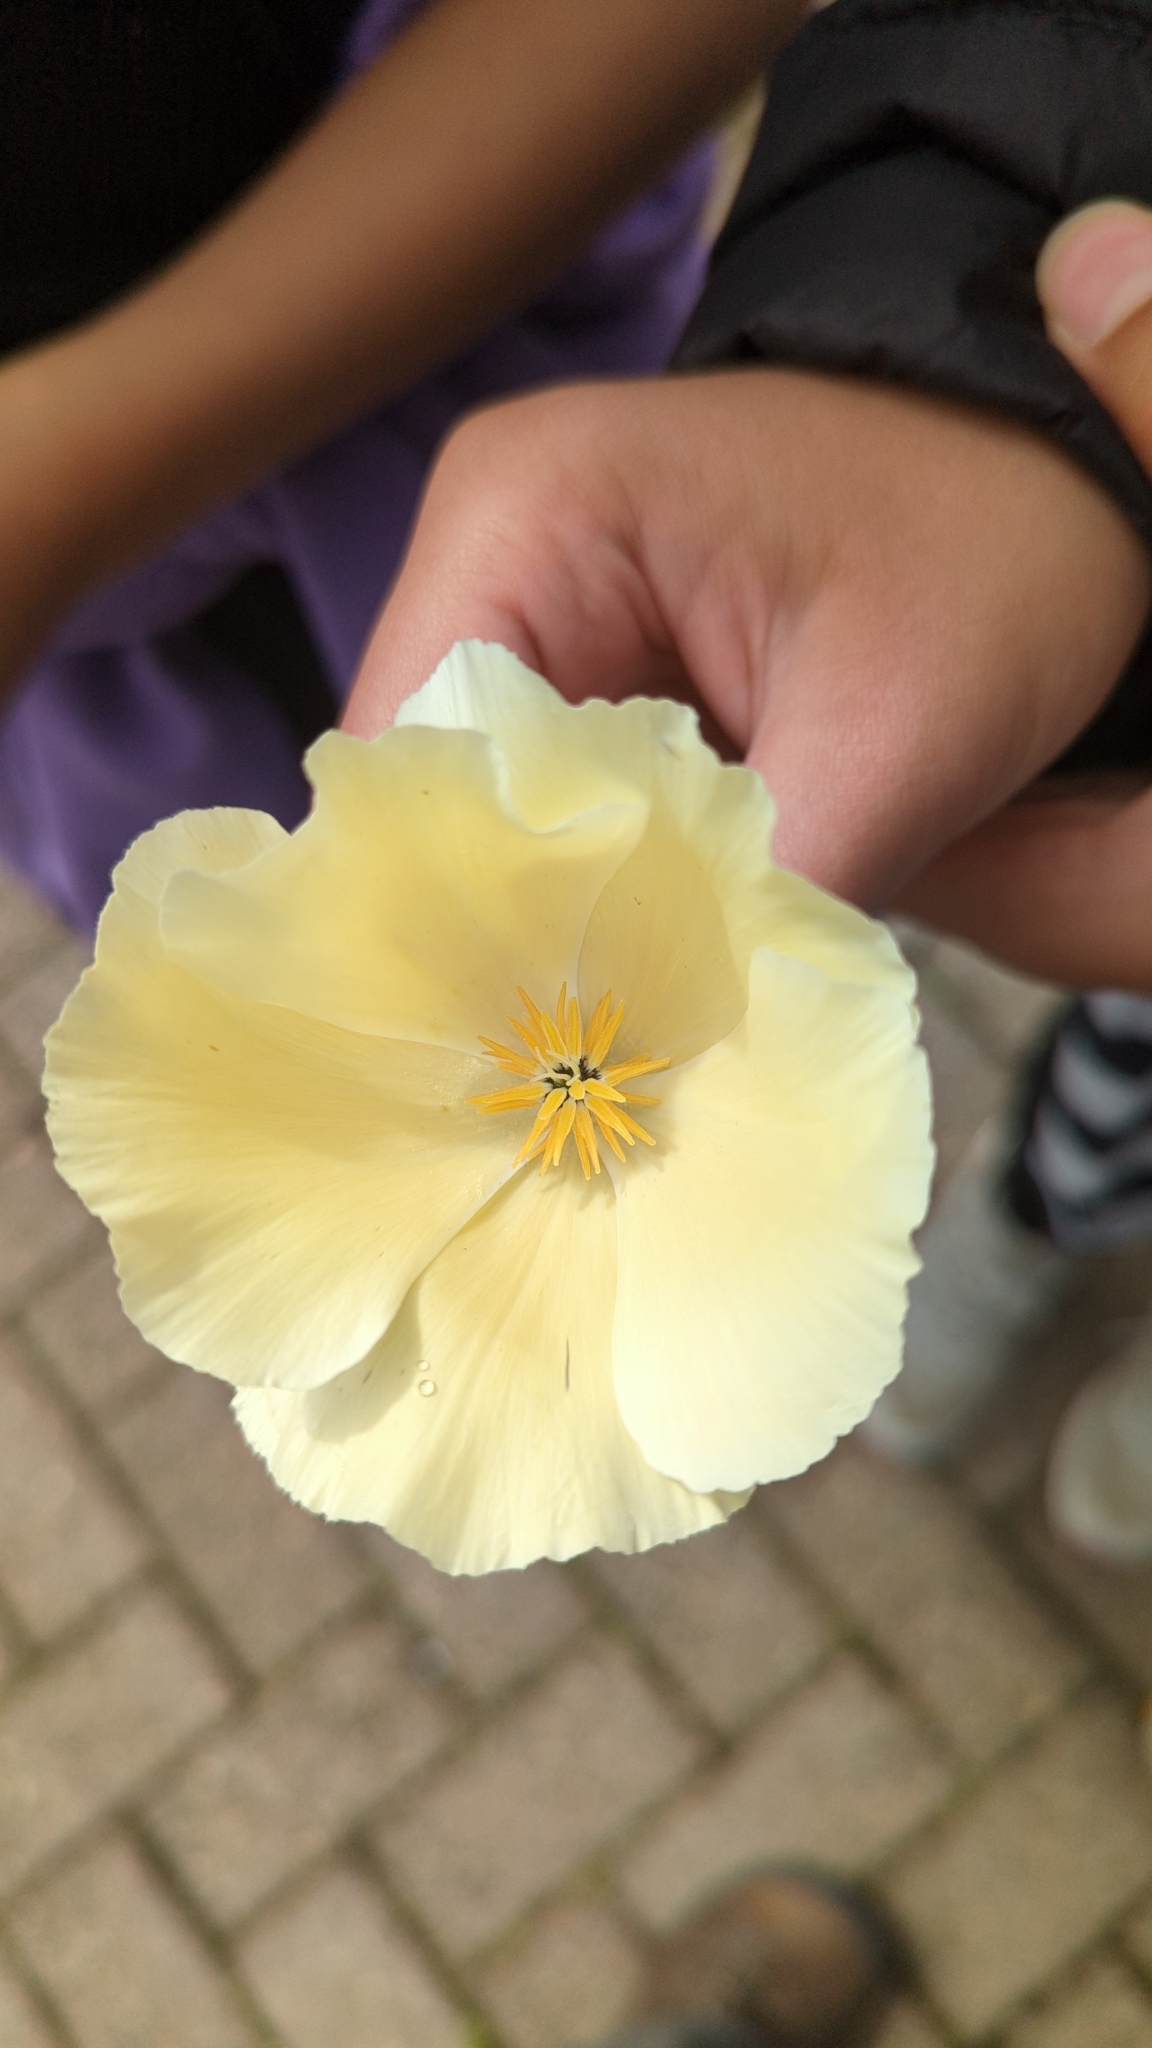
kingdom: Plantae
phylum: Tracheophyta
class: Magnoliopsida
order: Ranunculales
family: Papaveraceae
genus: Eschscholzia
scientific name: Eschscholzia californica
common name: California poppy
